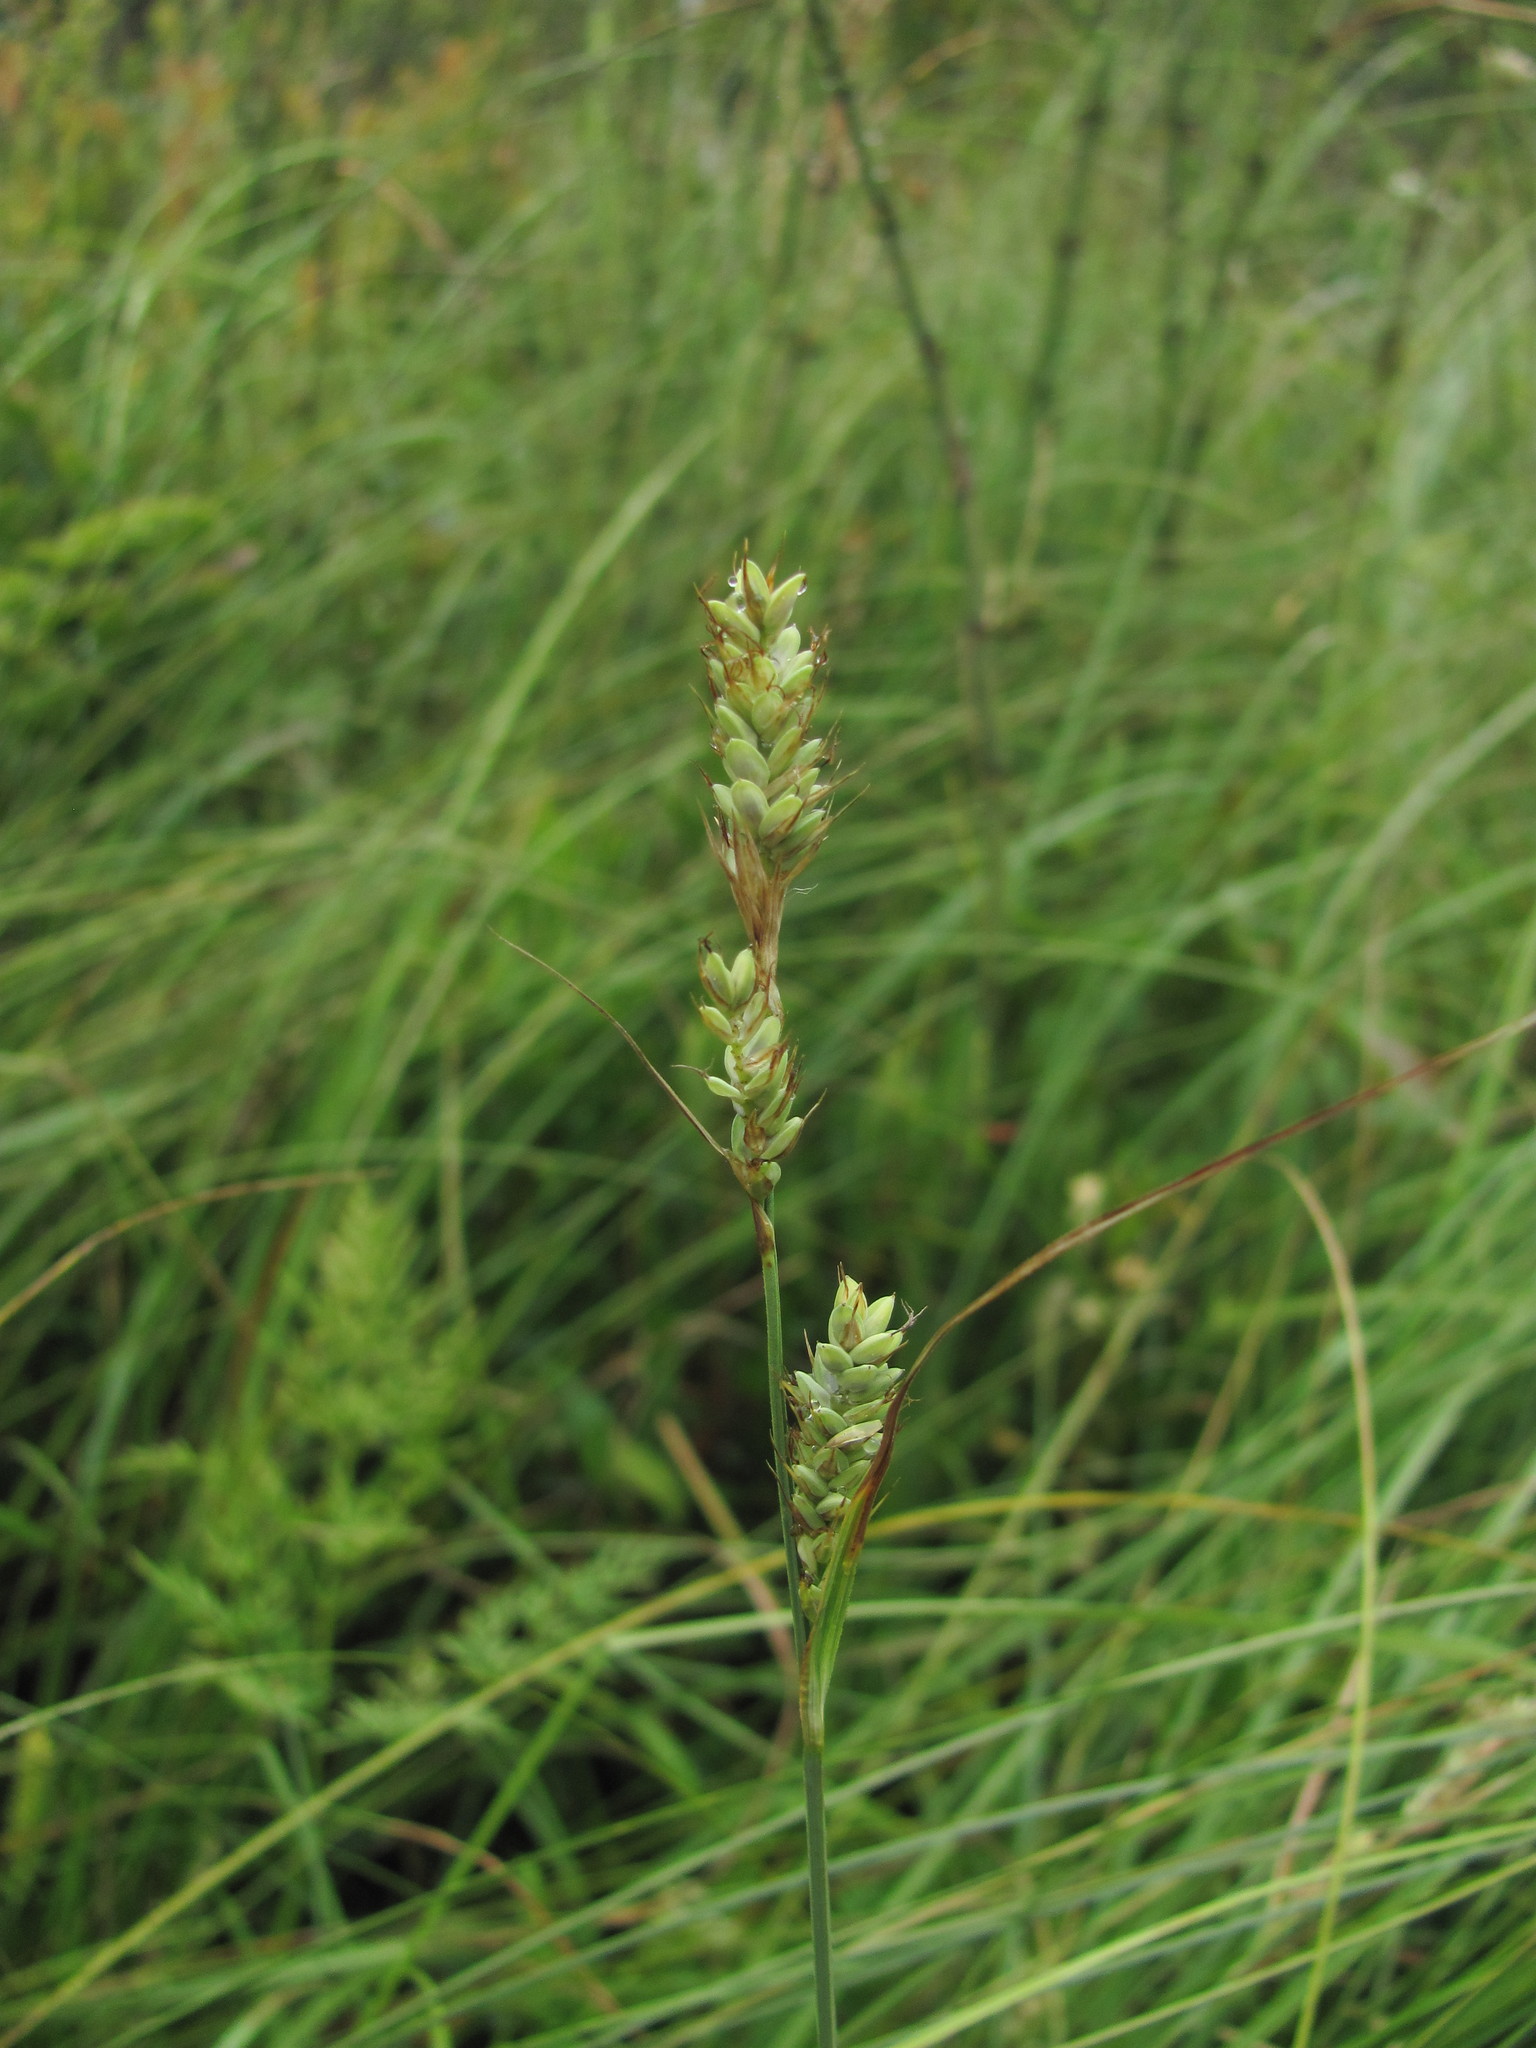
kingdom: Plantae
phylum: Tracheophyta
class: Liliopsida
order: Poales
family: Cyperaceae
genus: Carex
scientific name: Carex buxbaumii
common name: Club sedge
